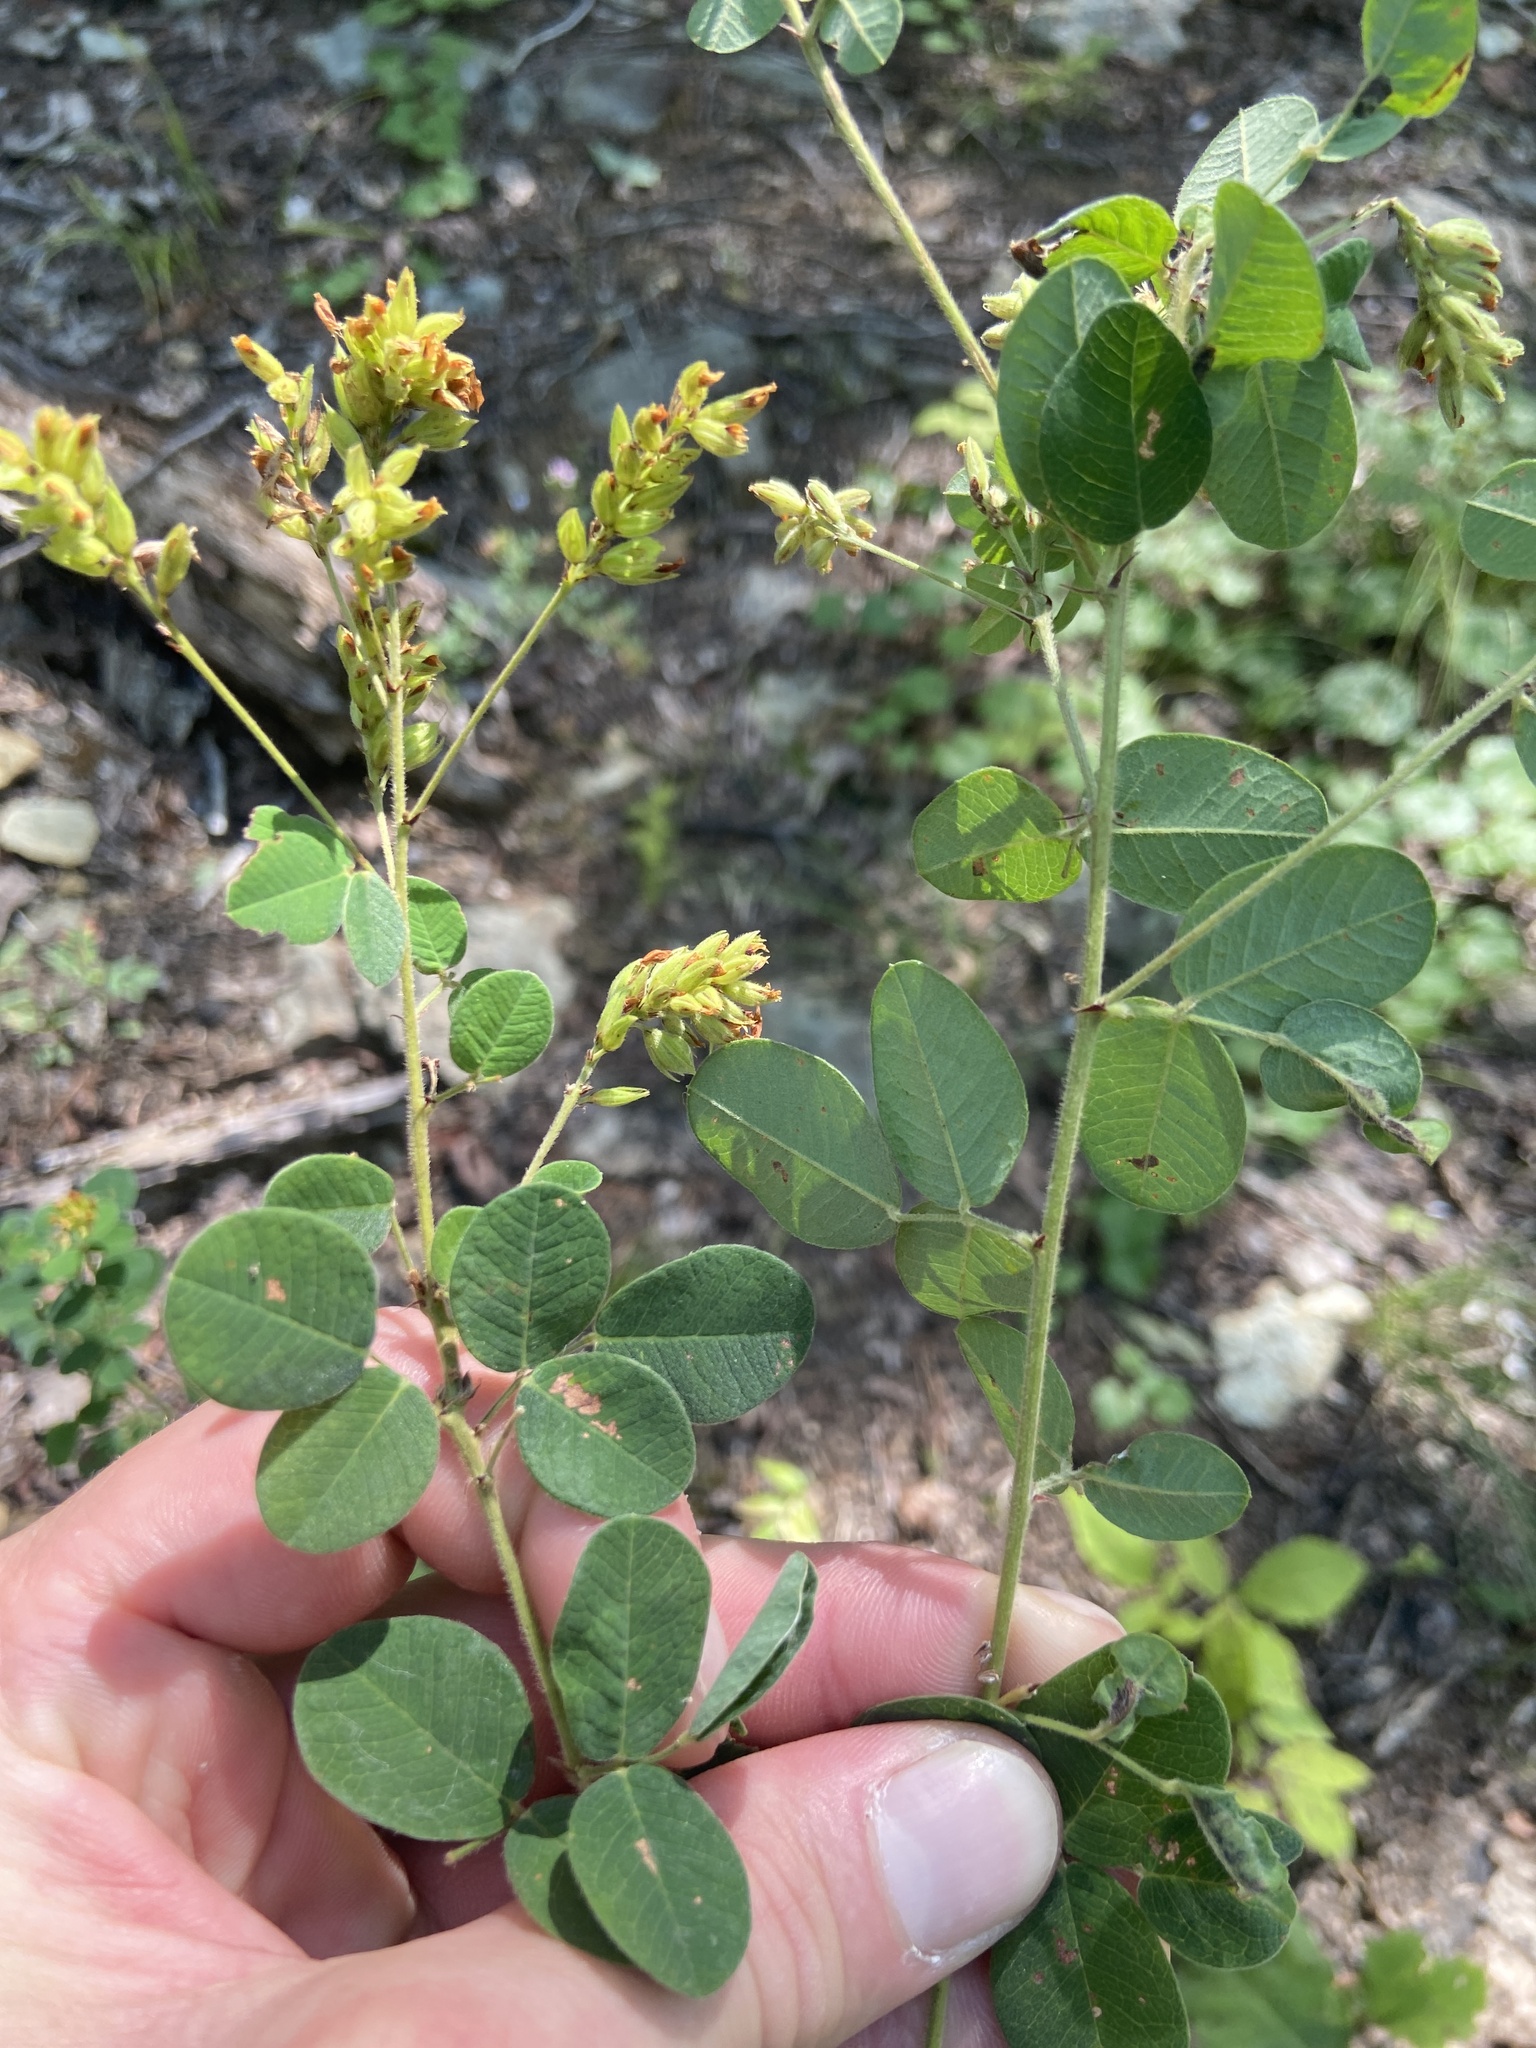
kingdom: Plantae
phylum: Tracheophyta
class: Magnoliopsida
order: Fabales
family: Fabaceae
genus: Lespedeza
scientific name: Lespedeza hirta
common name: Hairy lespedeza
